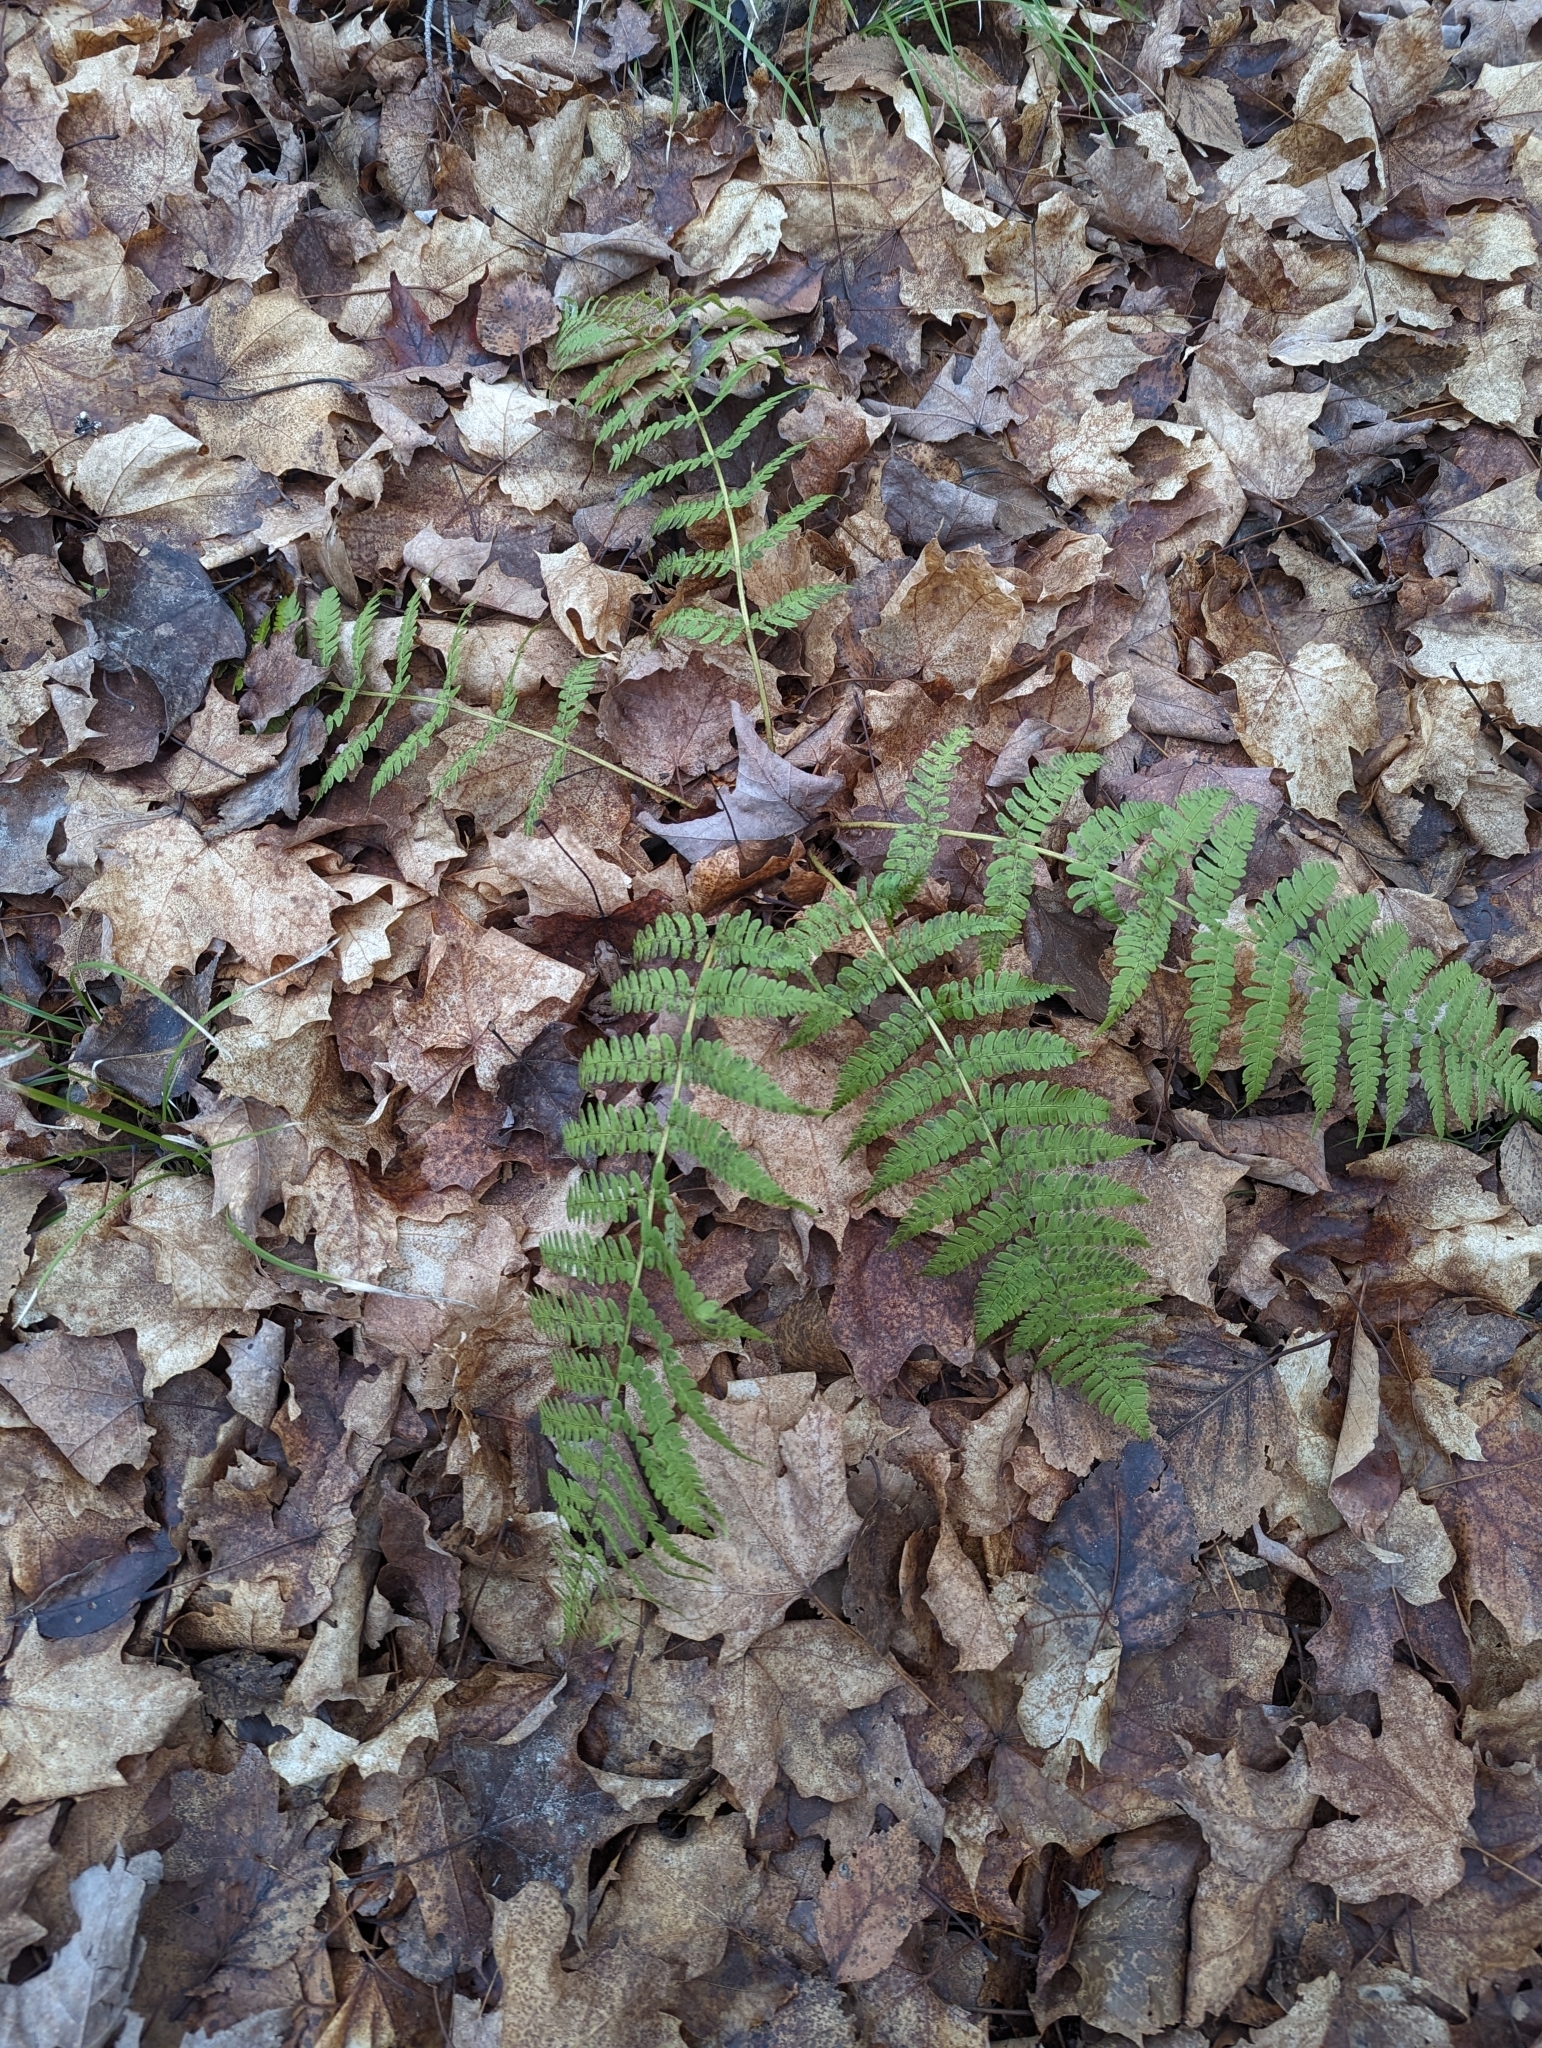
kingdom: Plantae
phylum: Tracheophyta
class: Polypodiopsida
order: Polypodiales
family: Dryopteridaceae
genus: Dryopteris
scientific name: Dryopteris marginalis
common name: Marginal wood fern
